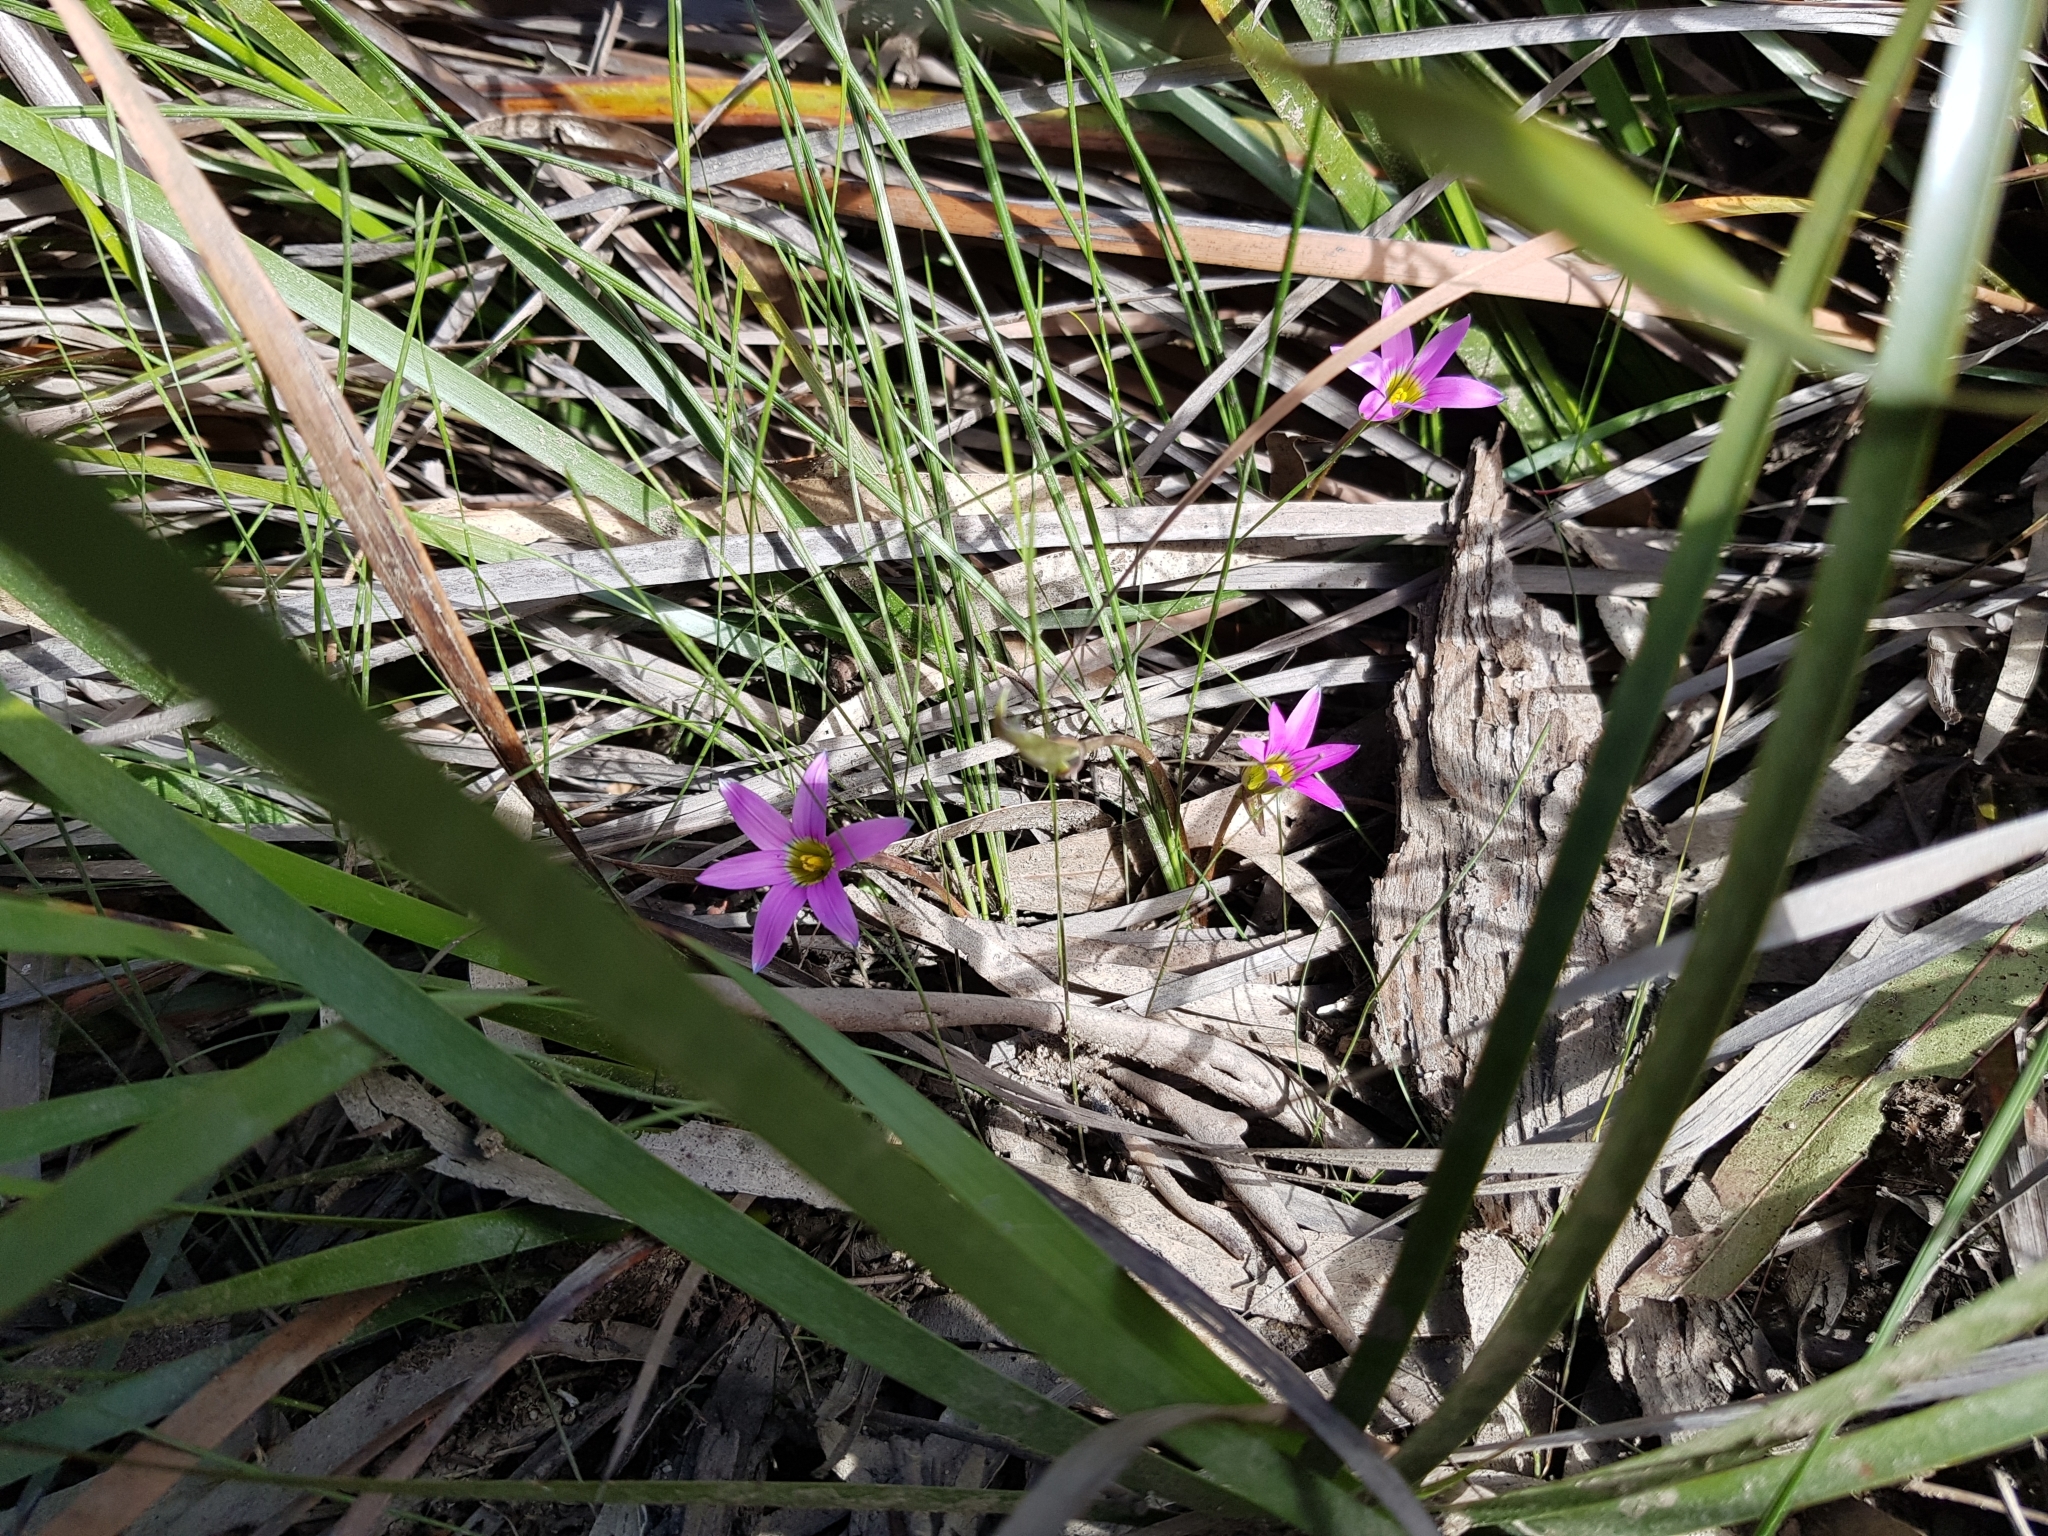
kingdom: Plantae
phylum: Tracheophyta
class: Liliopsida
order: Asparagales
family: Iridaceae
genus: Romulea
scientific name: Romulea rosea
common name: Oniongrass
